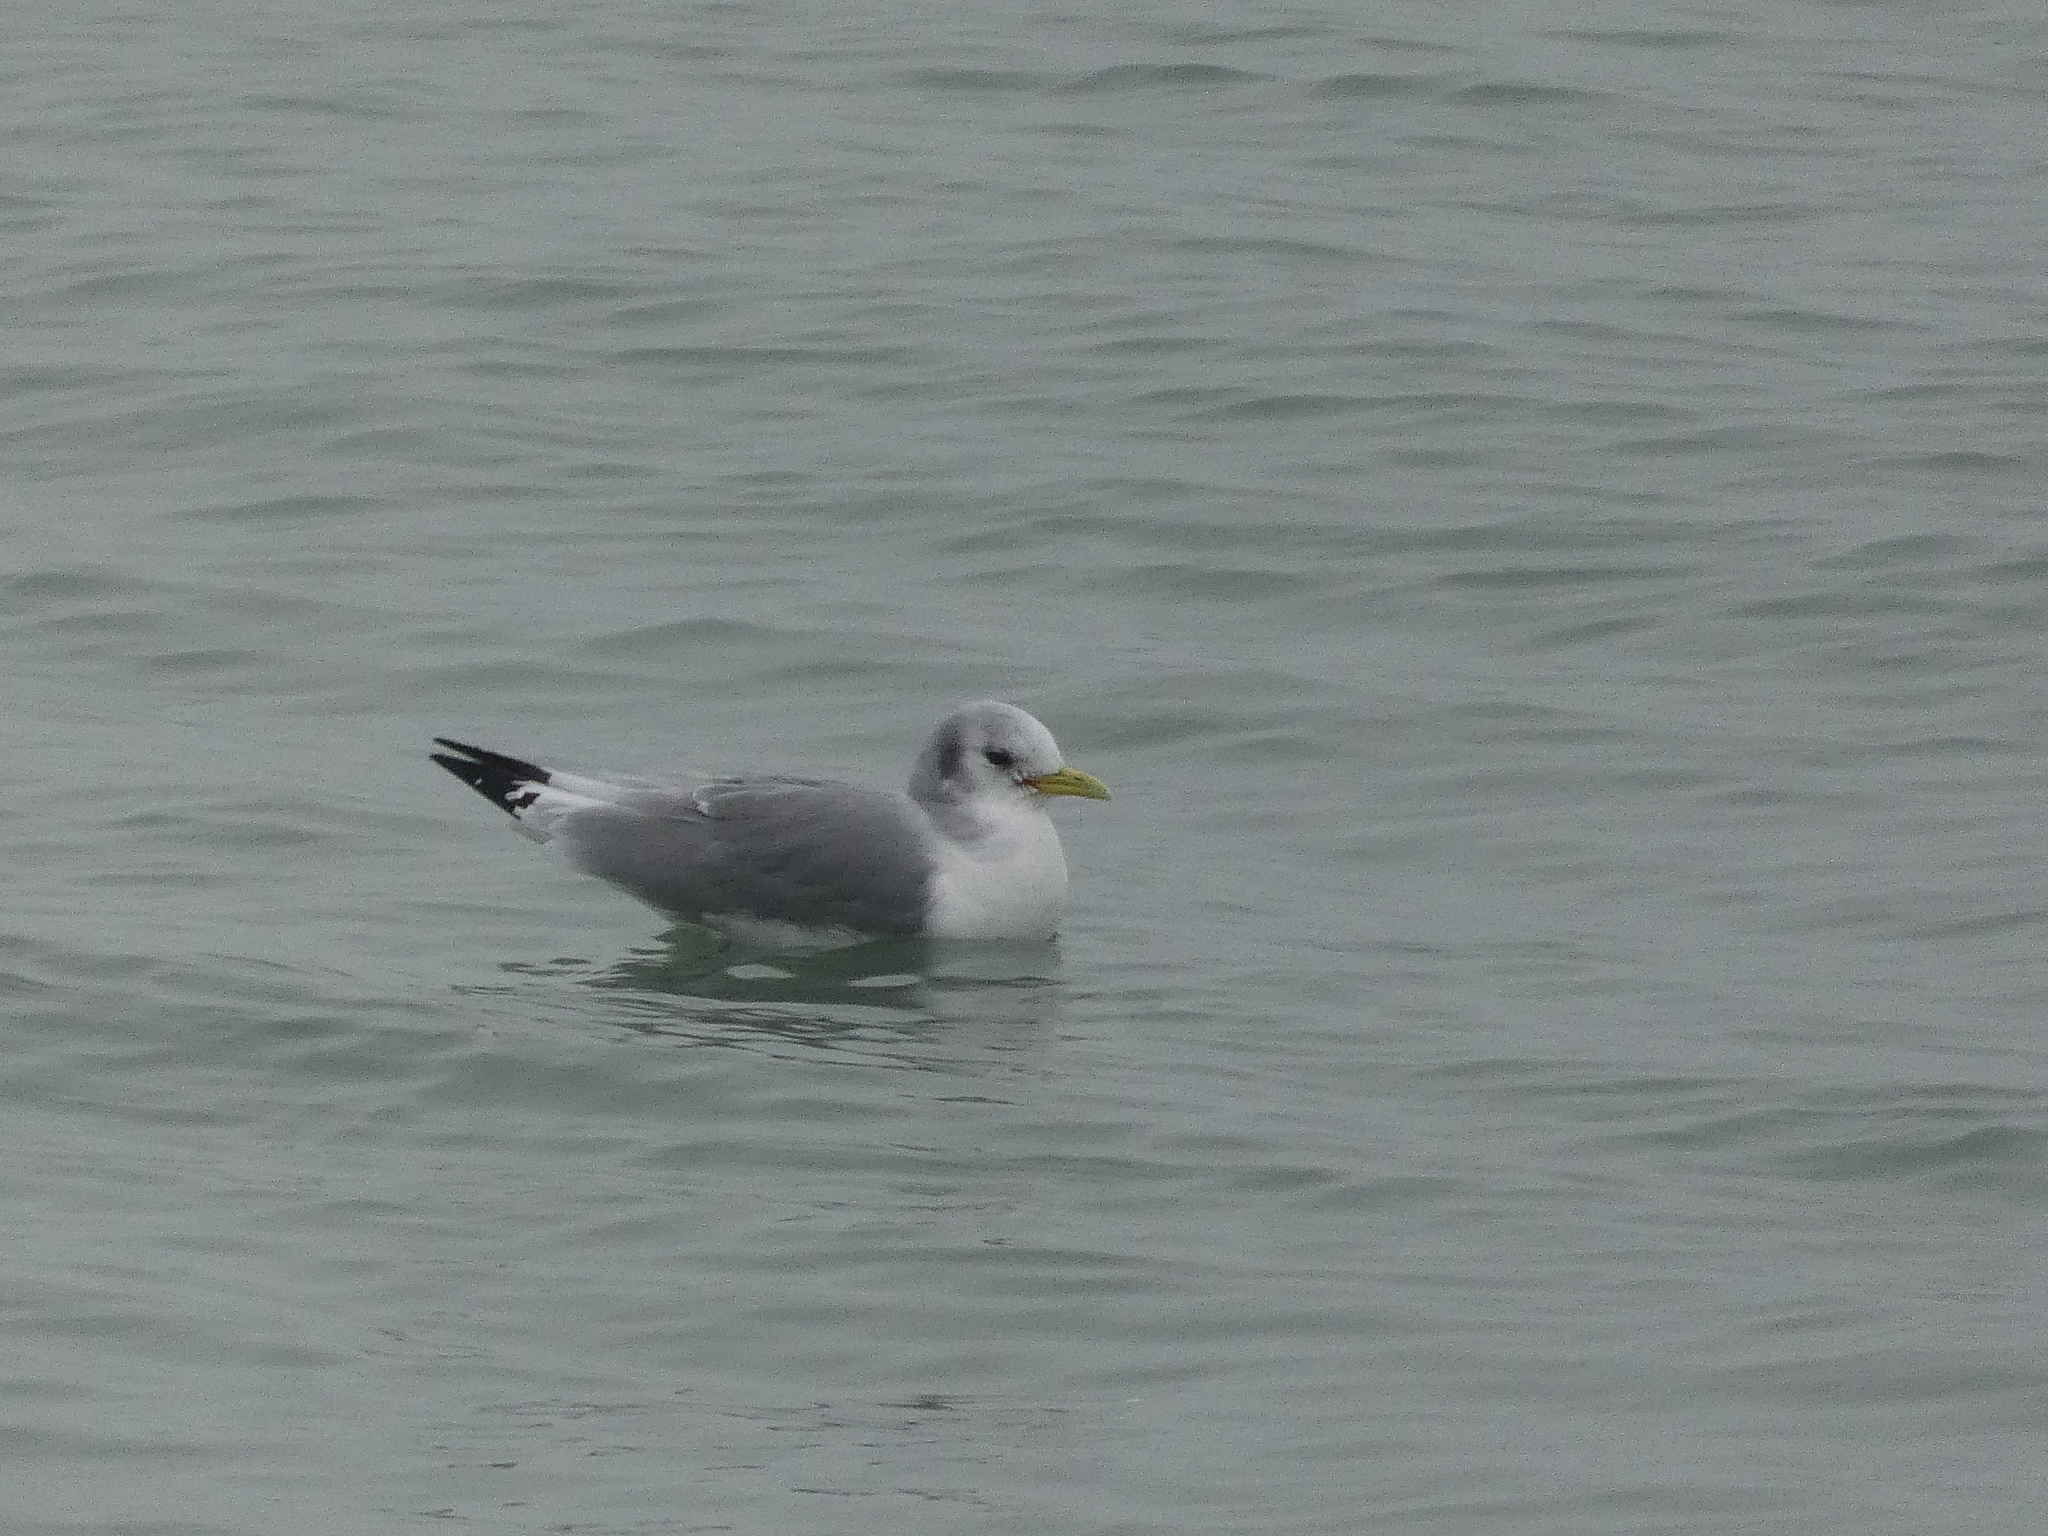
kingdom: Animalia
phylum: Chordata
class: Aves
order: Charadriiformes
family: Laridae
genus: Rissa
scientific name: Rissa tridactyla
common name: Black-legged kittiwake
